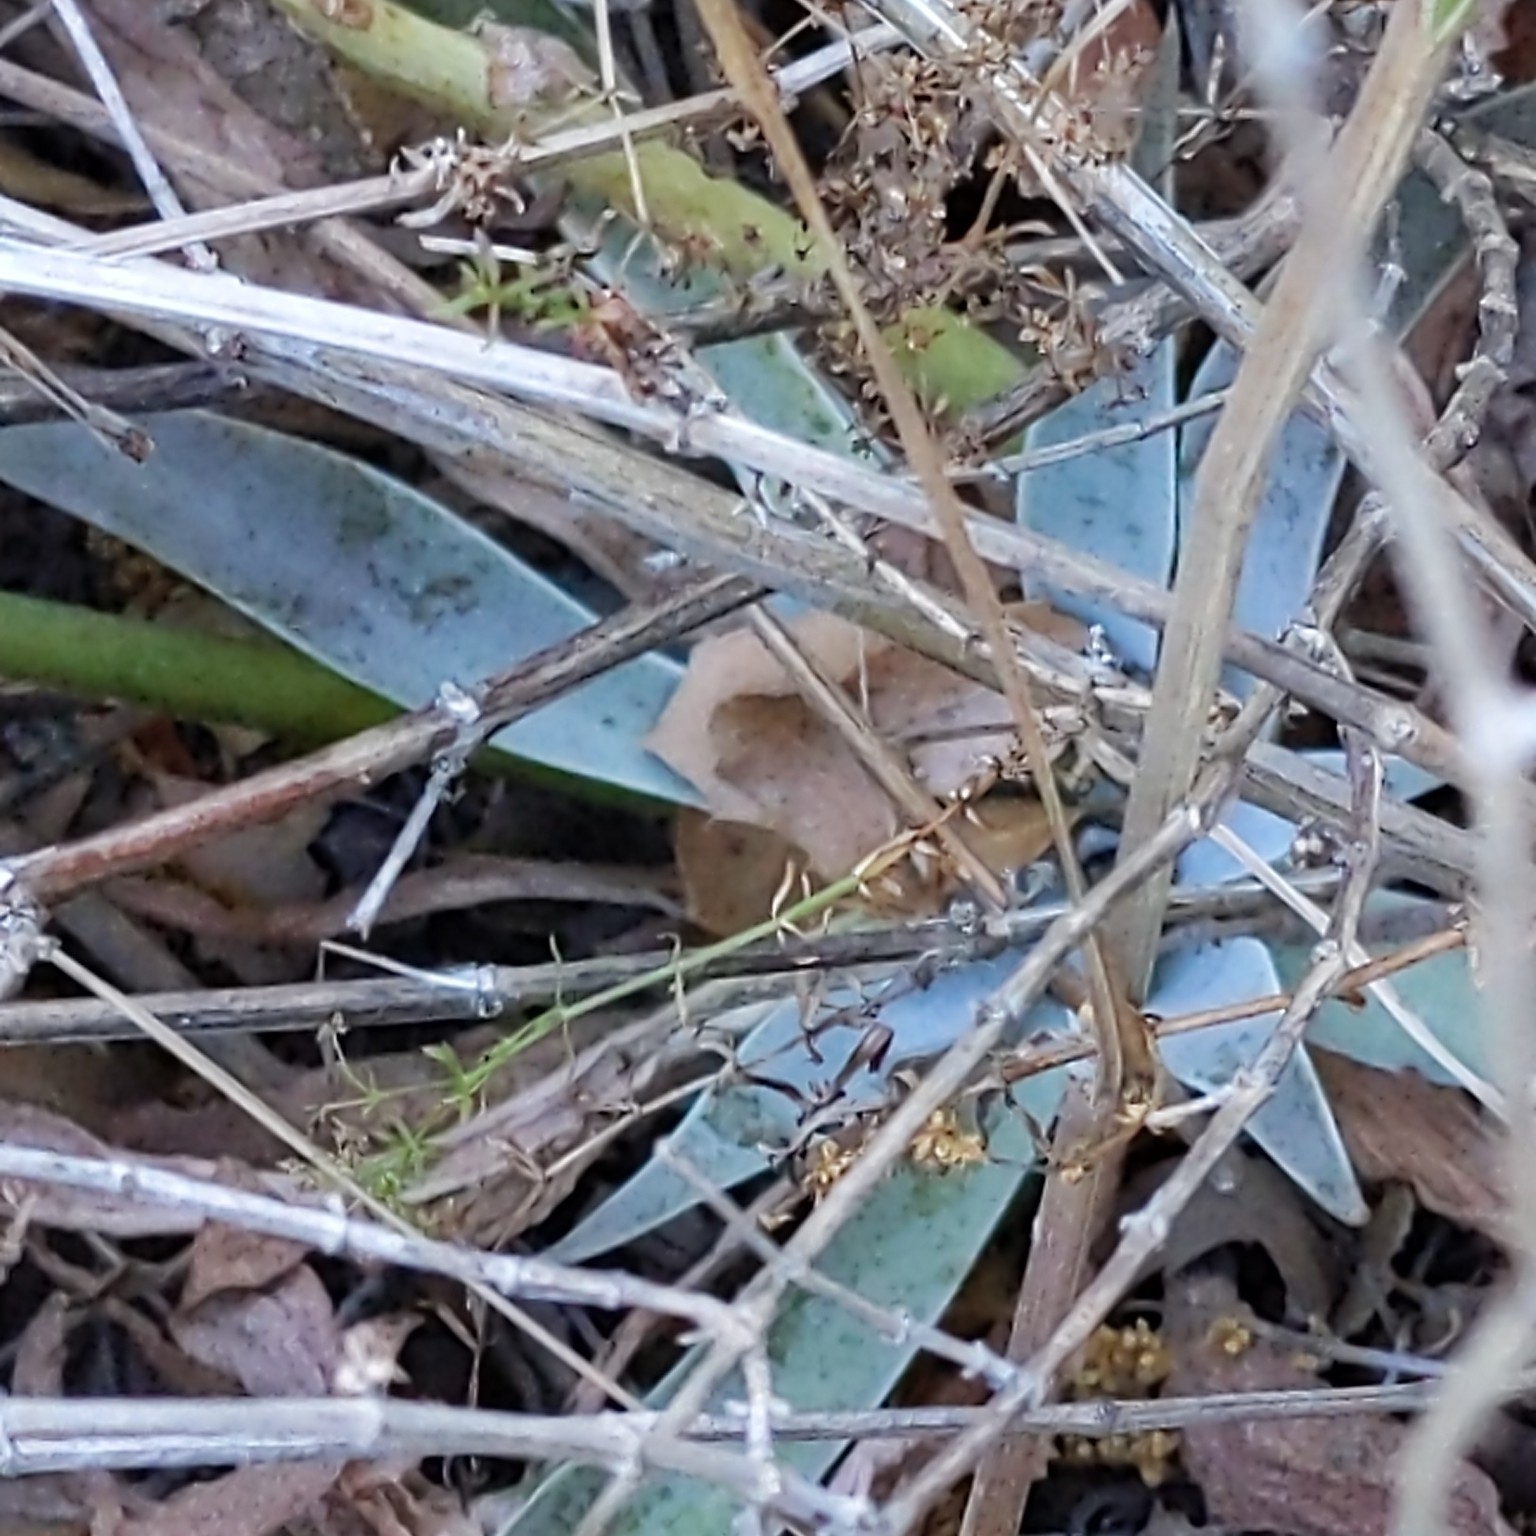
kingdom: Plantae
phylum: Tracheophyta
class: Magnoliopsida
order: Saxifragales
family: Crassulaceae
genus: Dudleya
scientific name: Dudleya lanceolata
